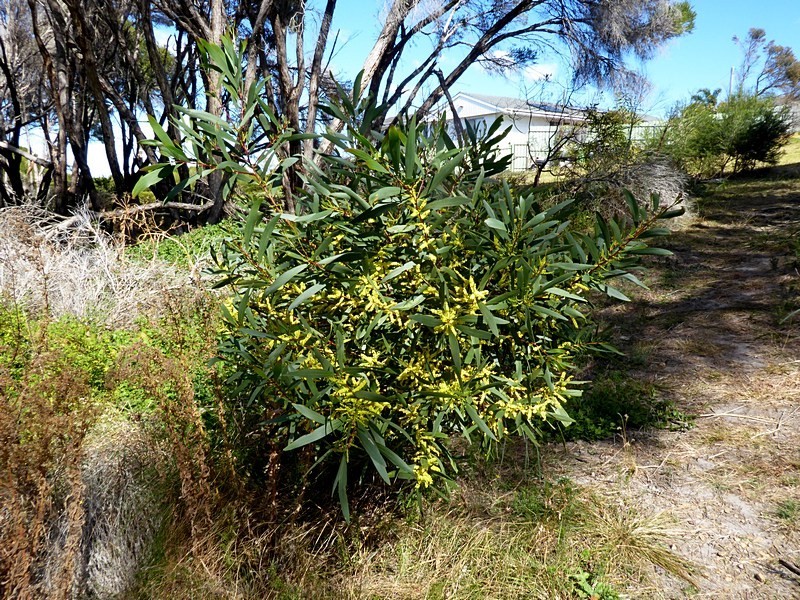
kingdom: Plantae
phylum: Tracheophyta
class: Magnoliopsida
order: Fabales
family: Fabaceae
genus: Acacia
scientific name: Acacia longifolia
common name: Sydney golden wattle
